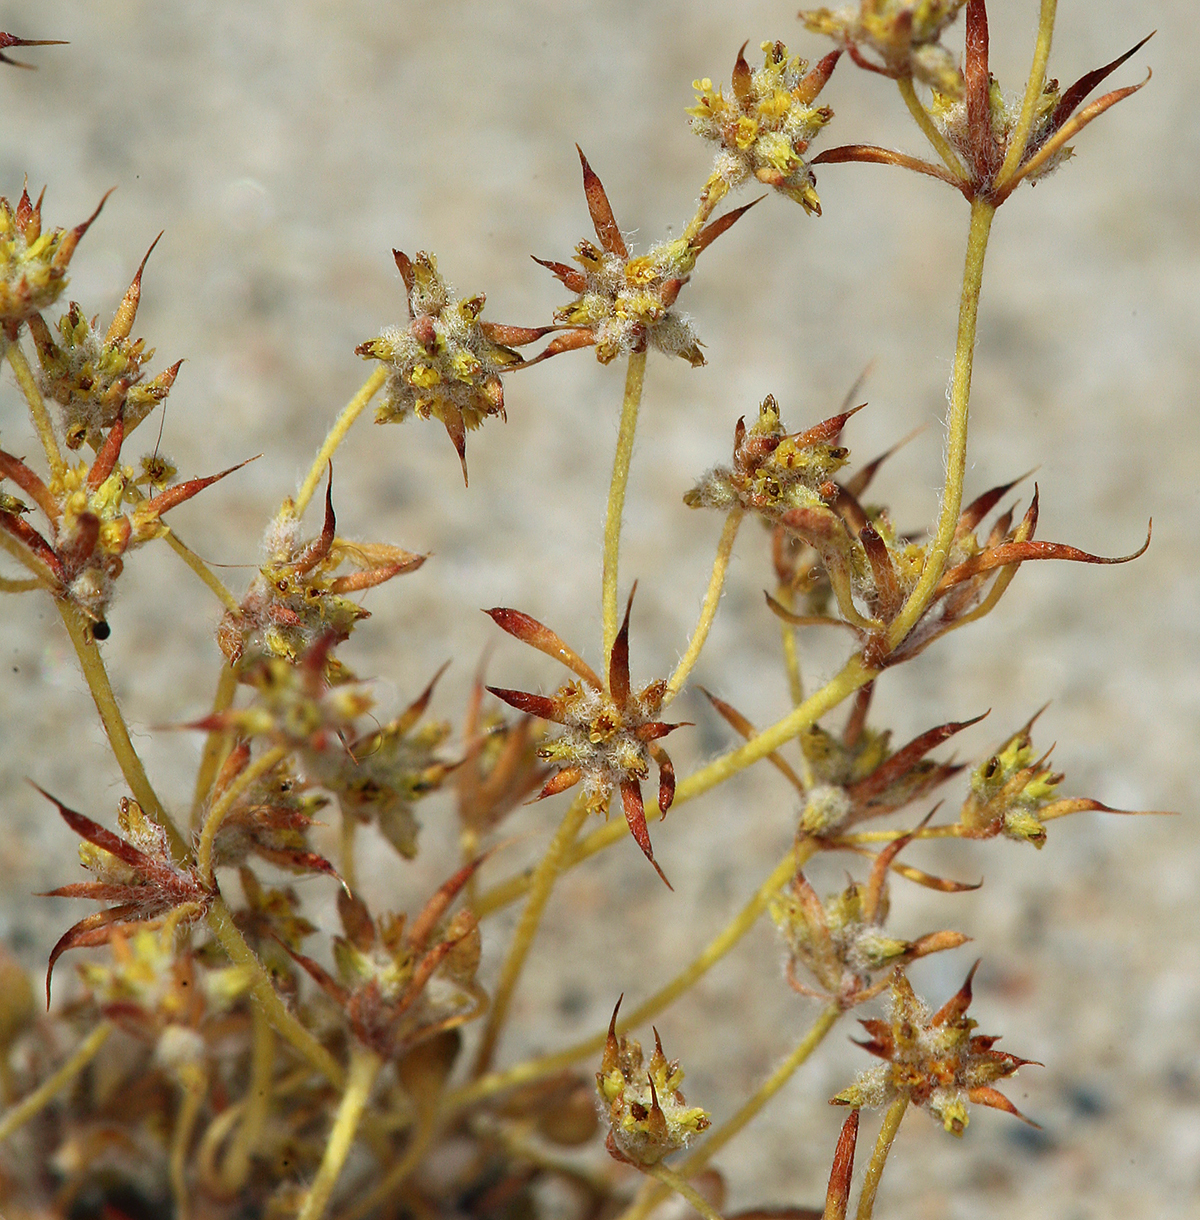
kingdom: Plantae
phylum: Tracheophyta
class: Magnoliopsida
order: Caryophyllales
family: Polygonaceae
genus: Goodmania
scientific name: Goodmania luteola
